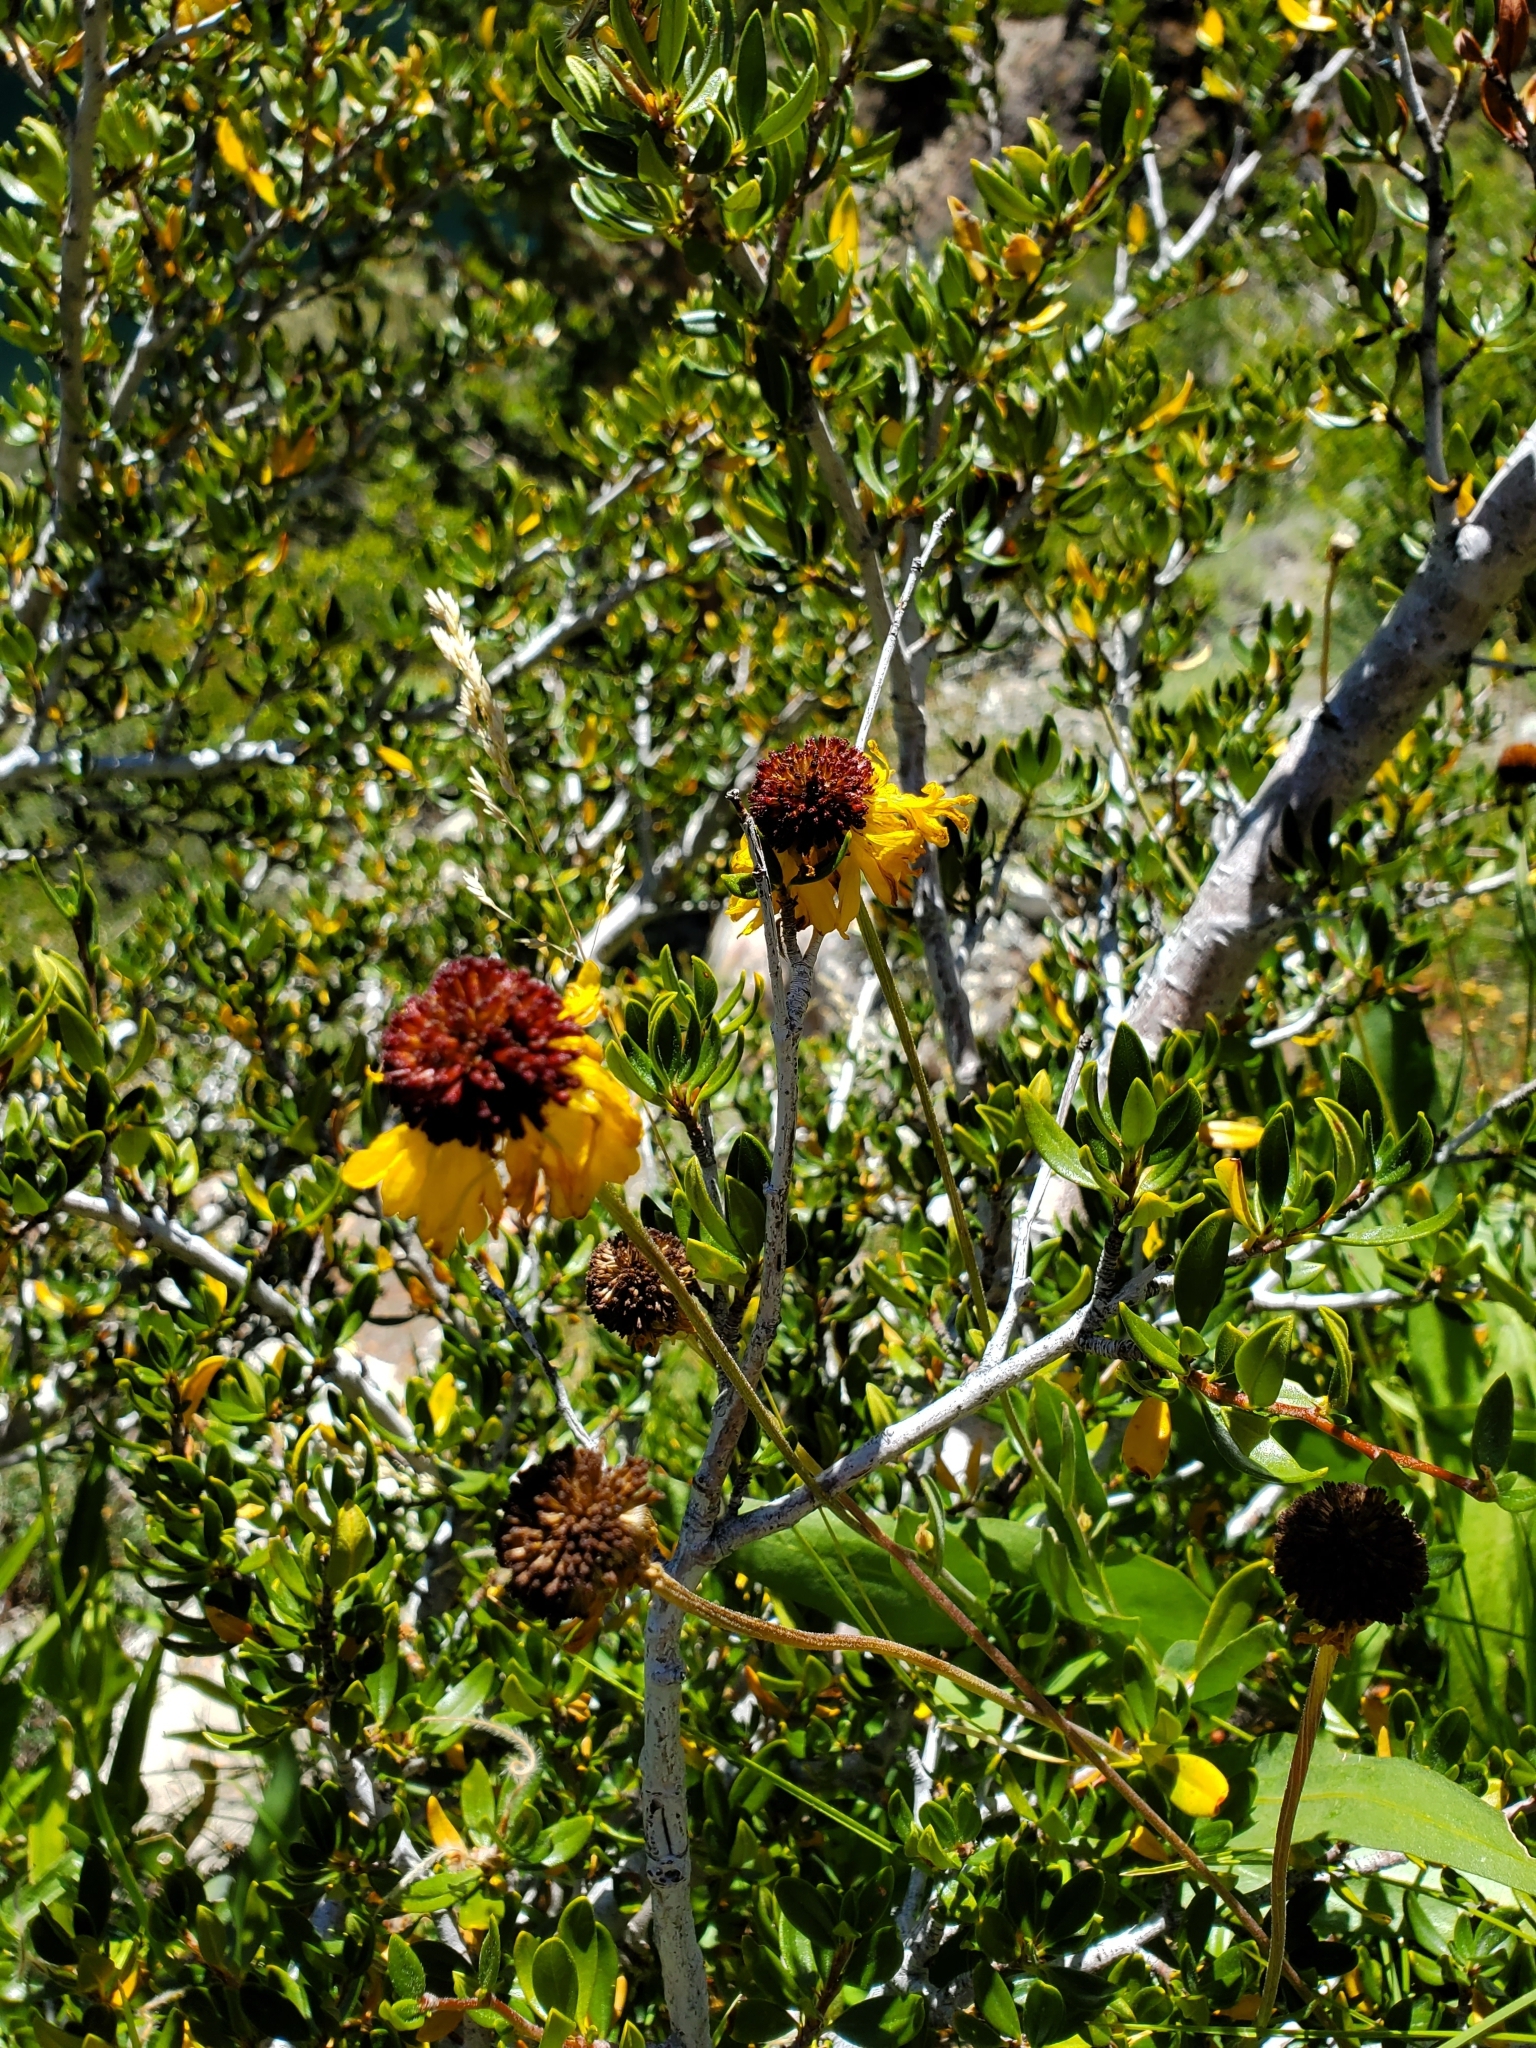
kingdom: Plantae
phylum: Tracheophyta
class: Magnoliopsida
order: Asterales
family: Asteraceae
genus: Helenium
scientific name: Helenium bigelovii
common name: Bigelow's sneezeweed
